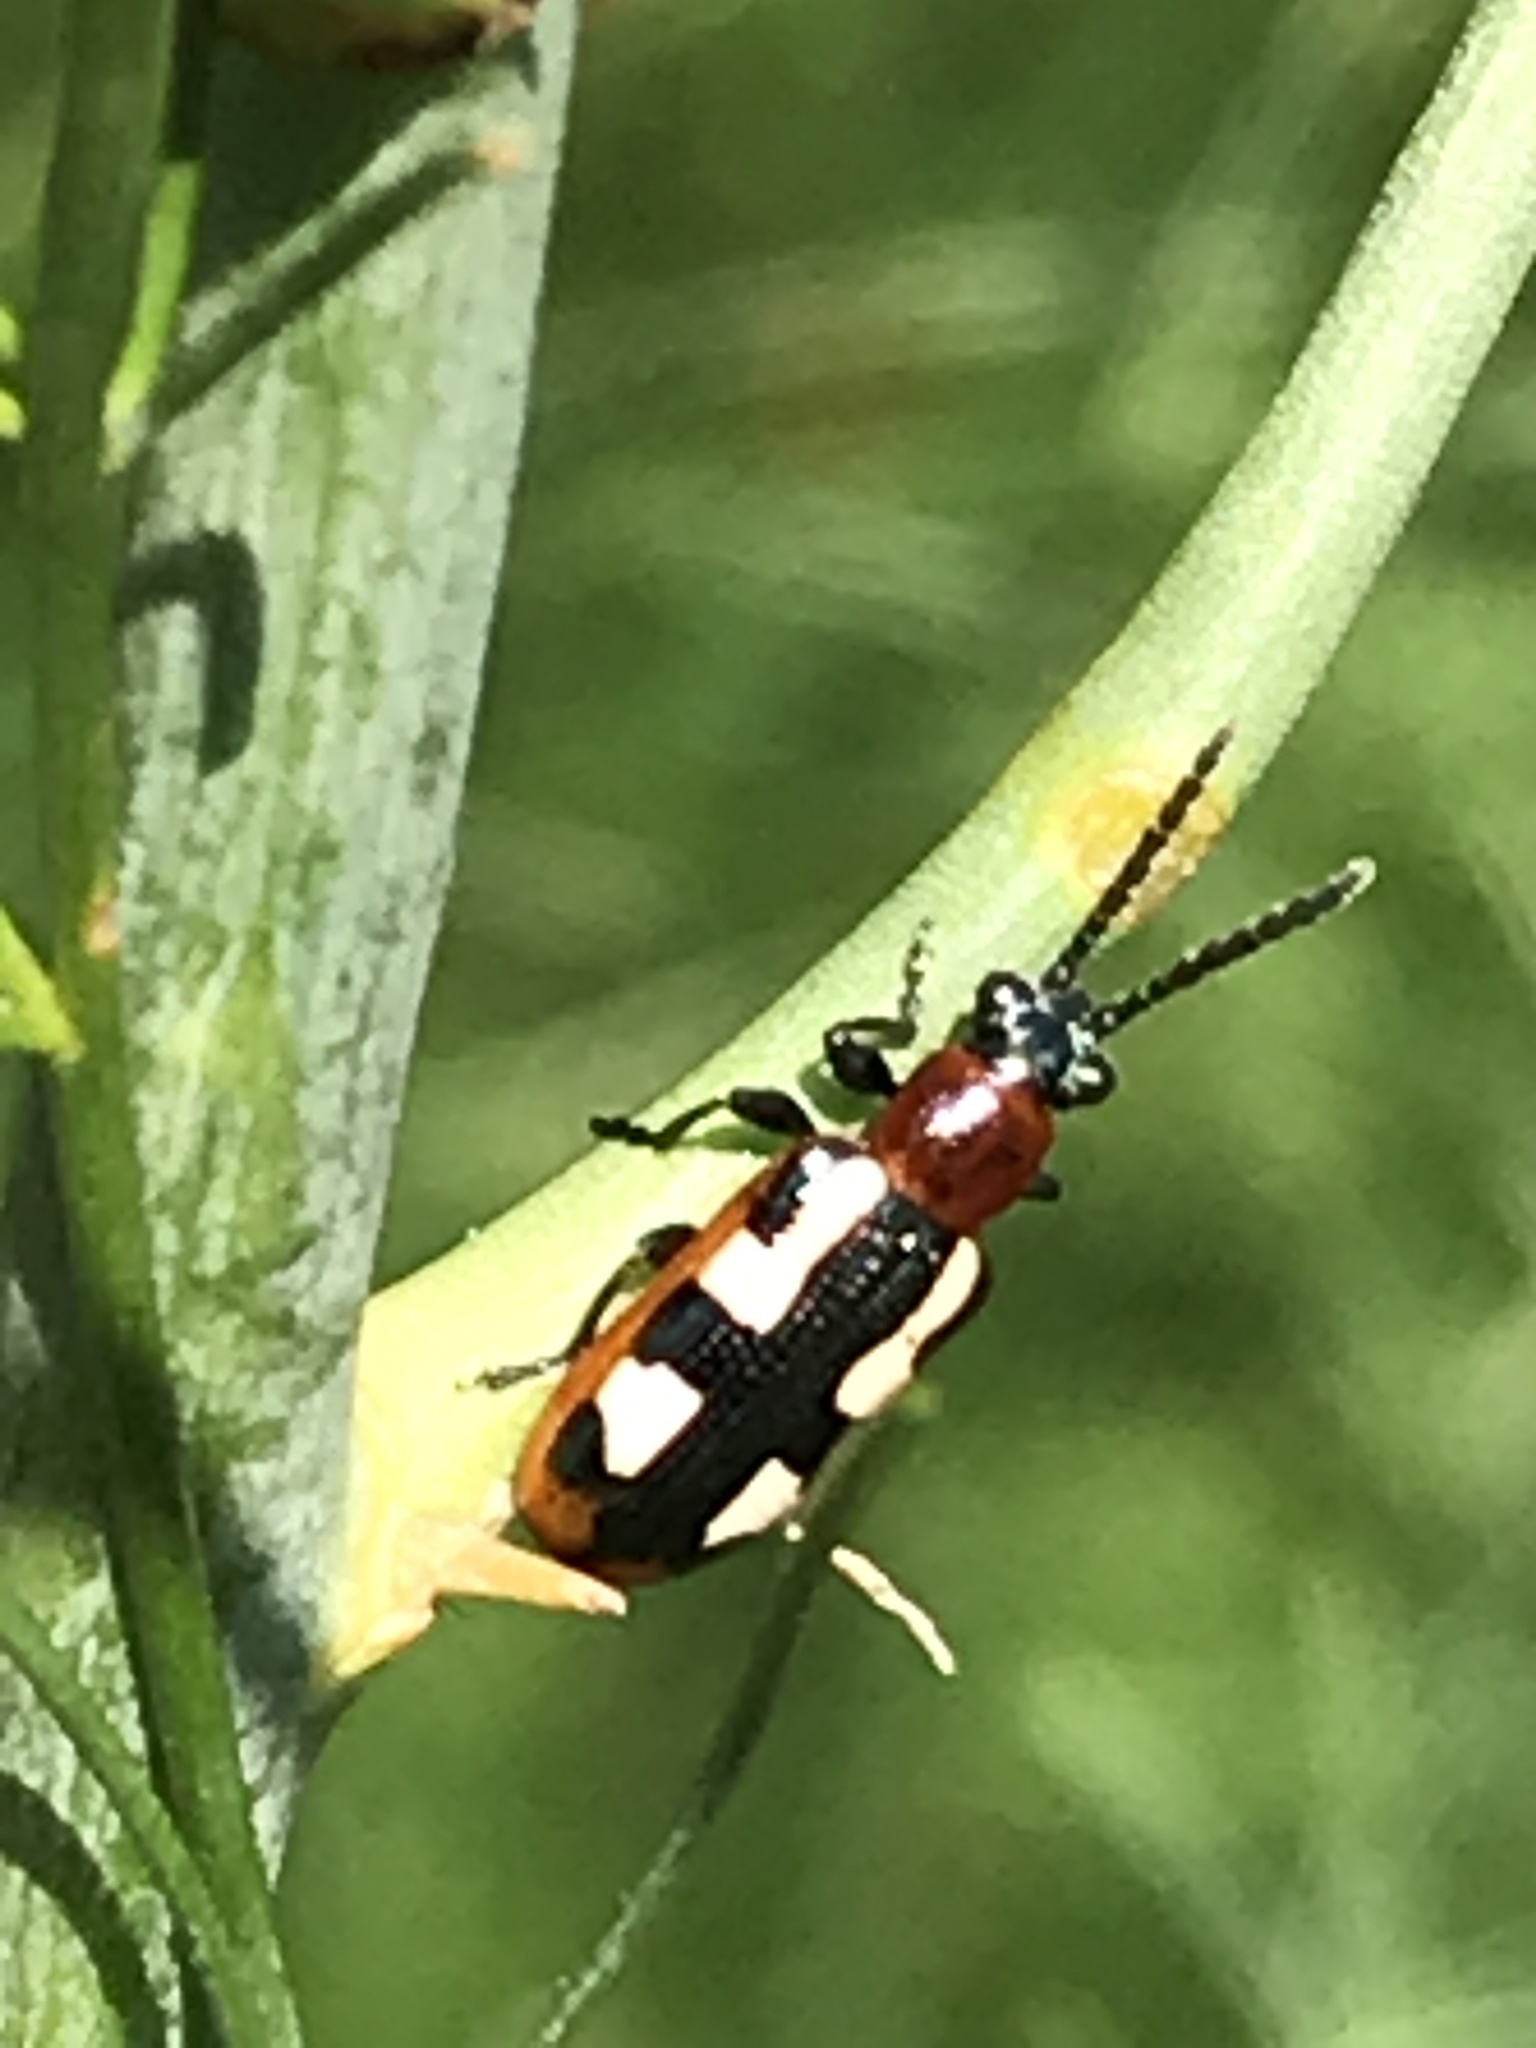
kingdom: Animalia
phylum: Arthropoda
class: Insecta
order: Coleoptera
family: Chrysomelidae
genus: Crioceris
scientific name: Crioceris asparagi
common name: Asparagus beetle
